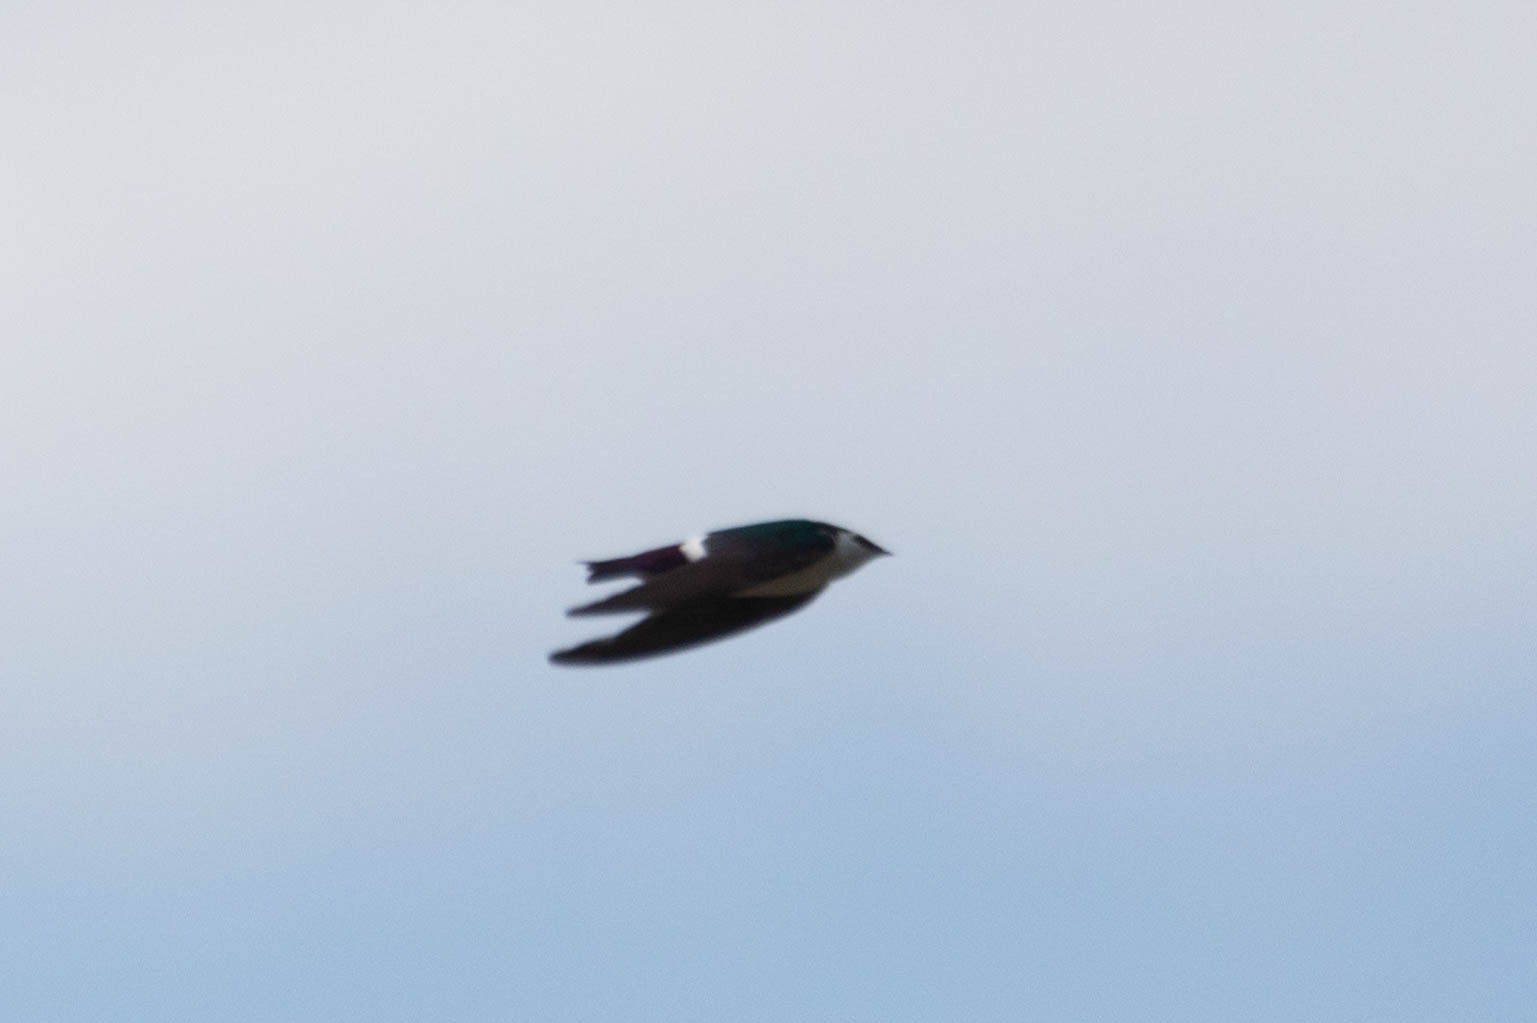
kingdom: Animalia
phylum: Chordata
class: Aves
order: Passeriformes
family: Hirundinidae
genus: Tachycineta
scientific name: Tachycineta thalassina
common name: Violet-green swallow
